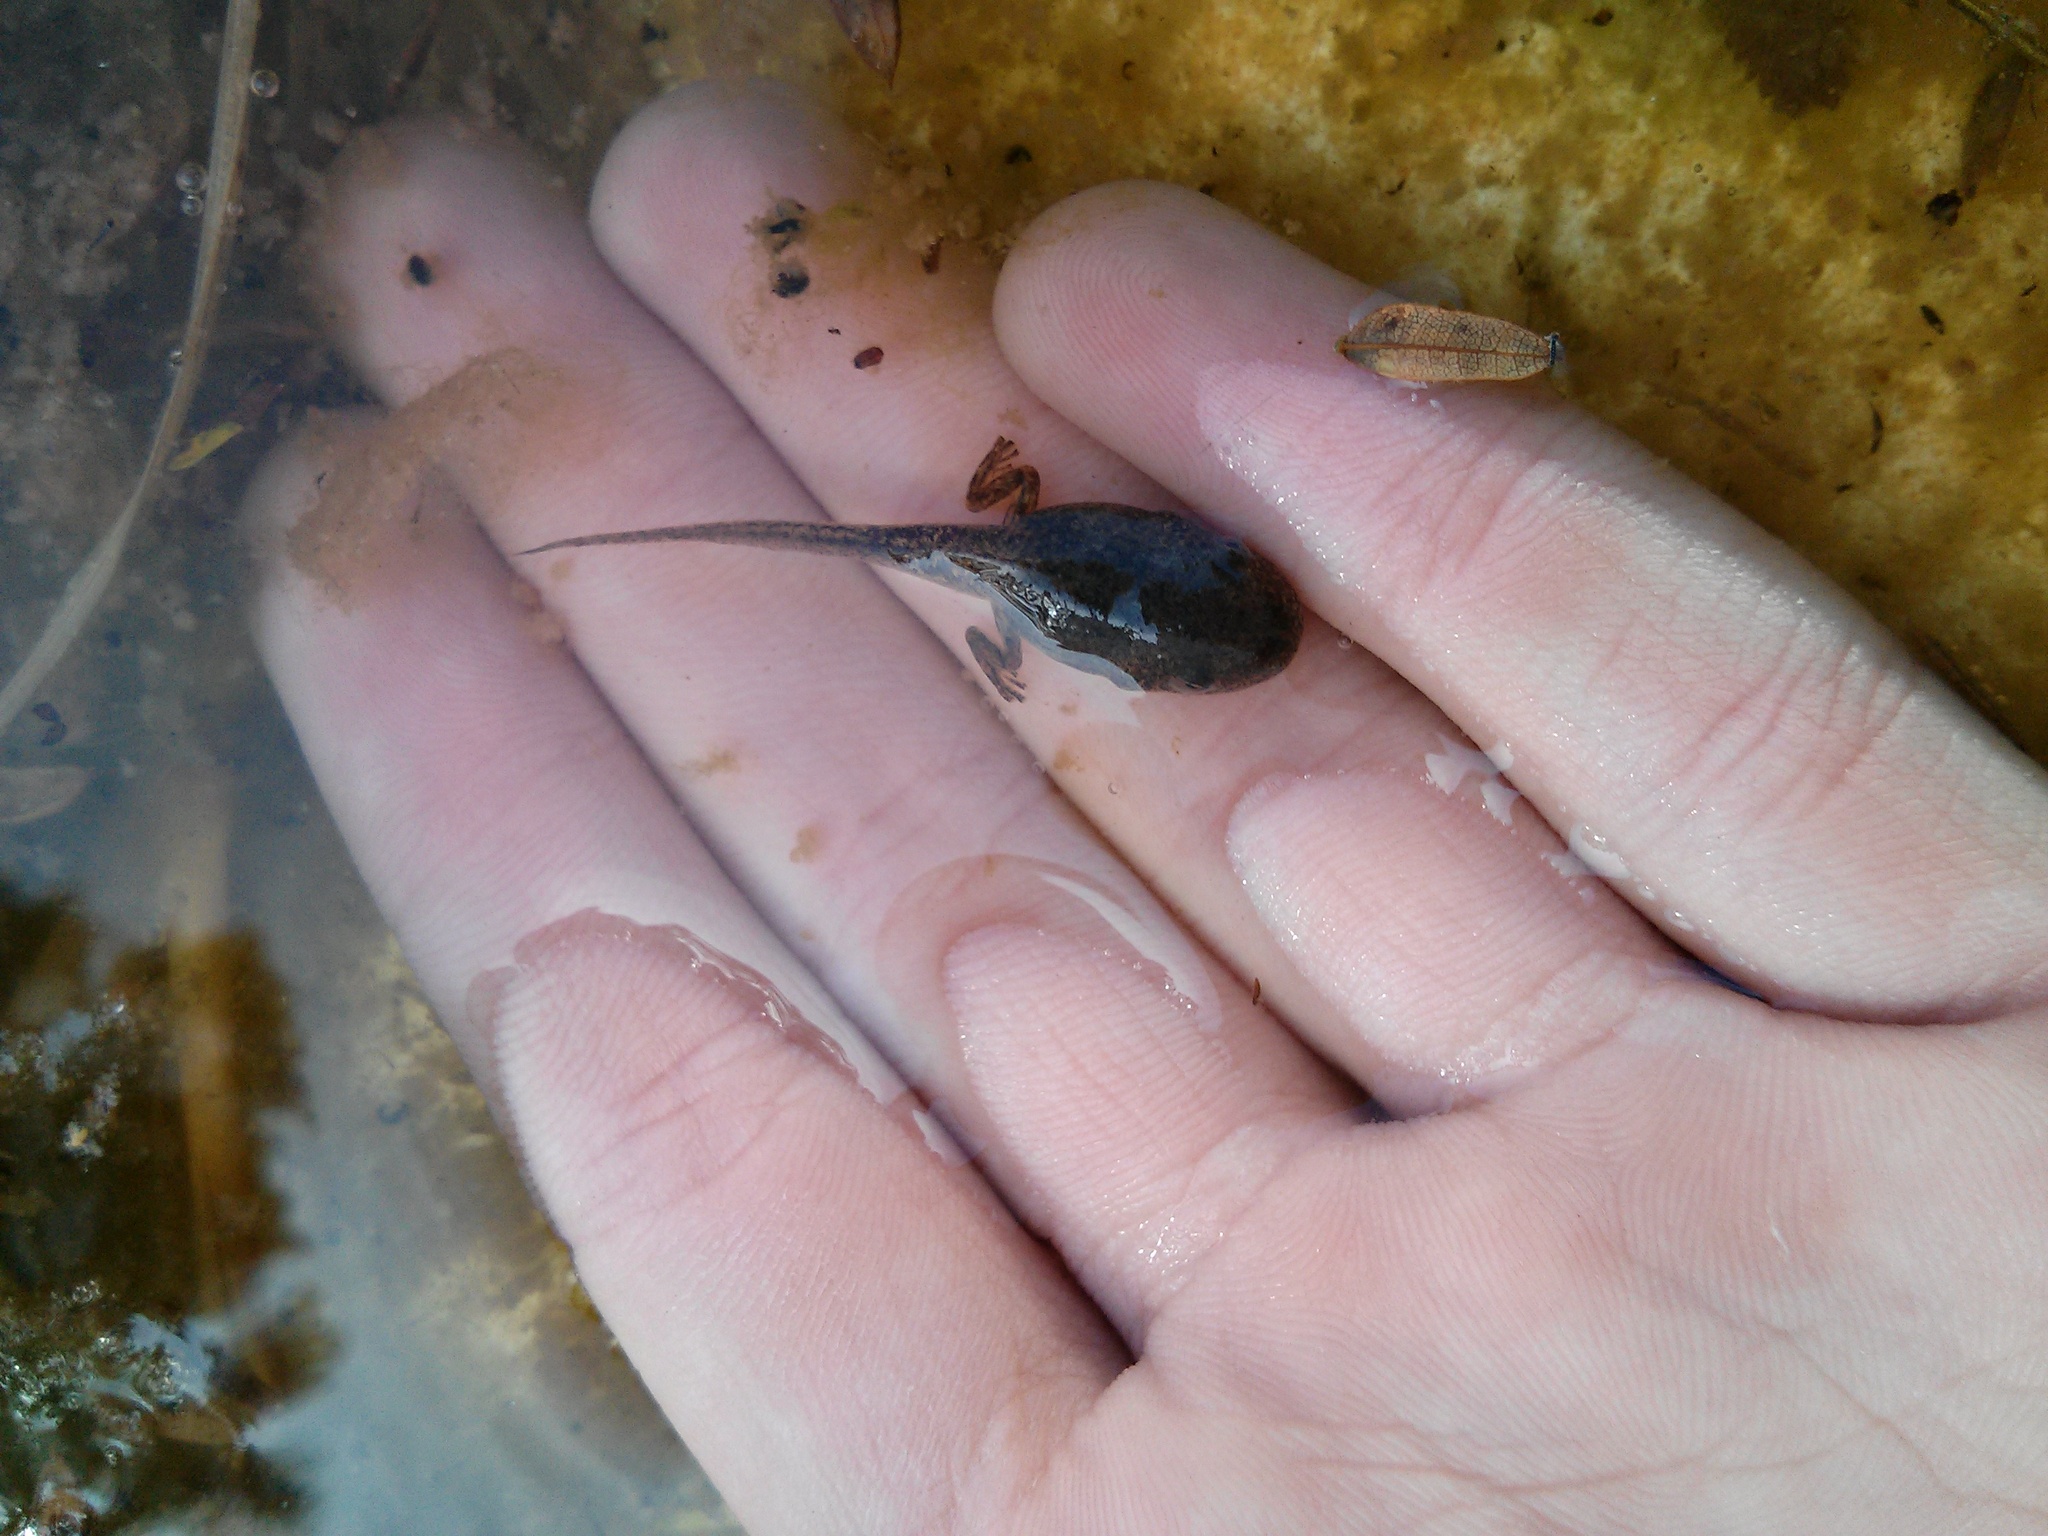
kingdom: Animalia
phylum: Chordata
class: Amphibia
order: Anura
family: Pelodryadidae
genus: Ranoidea
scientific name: Ranoidea caerulea
